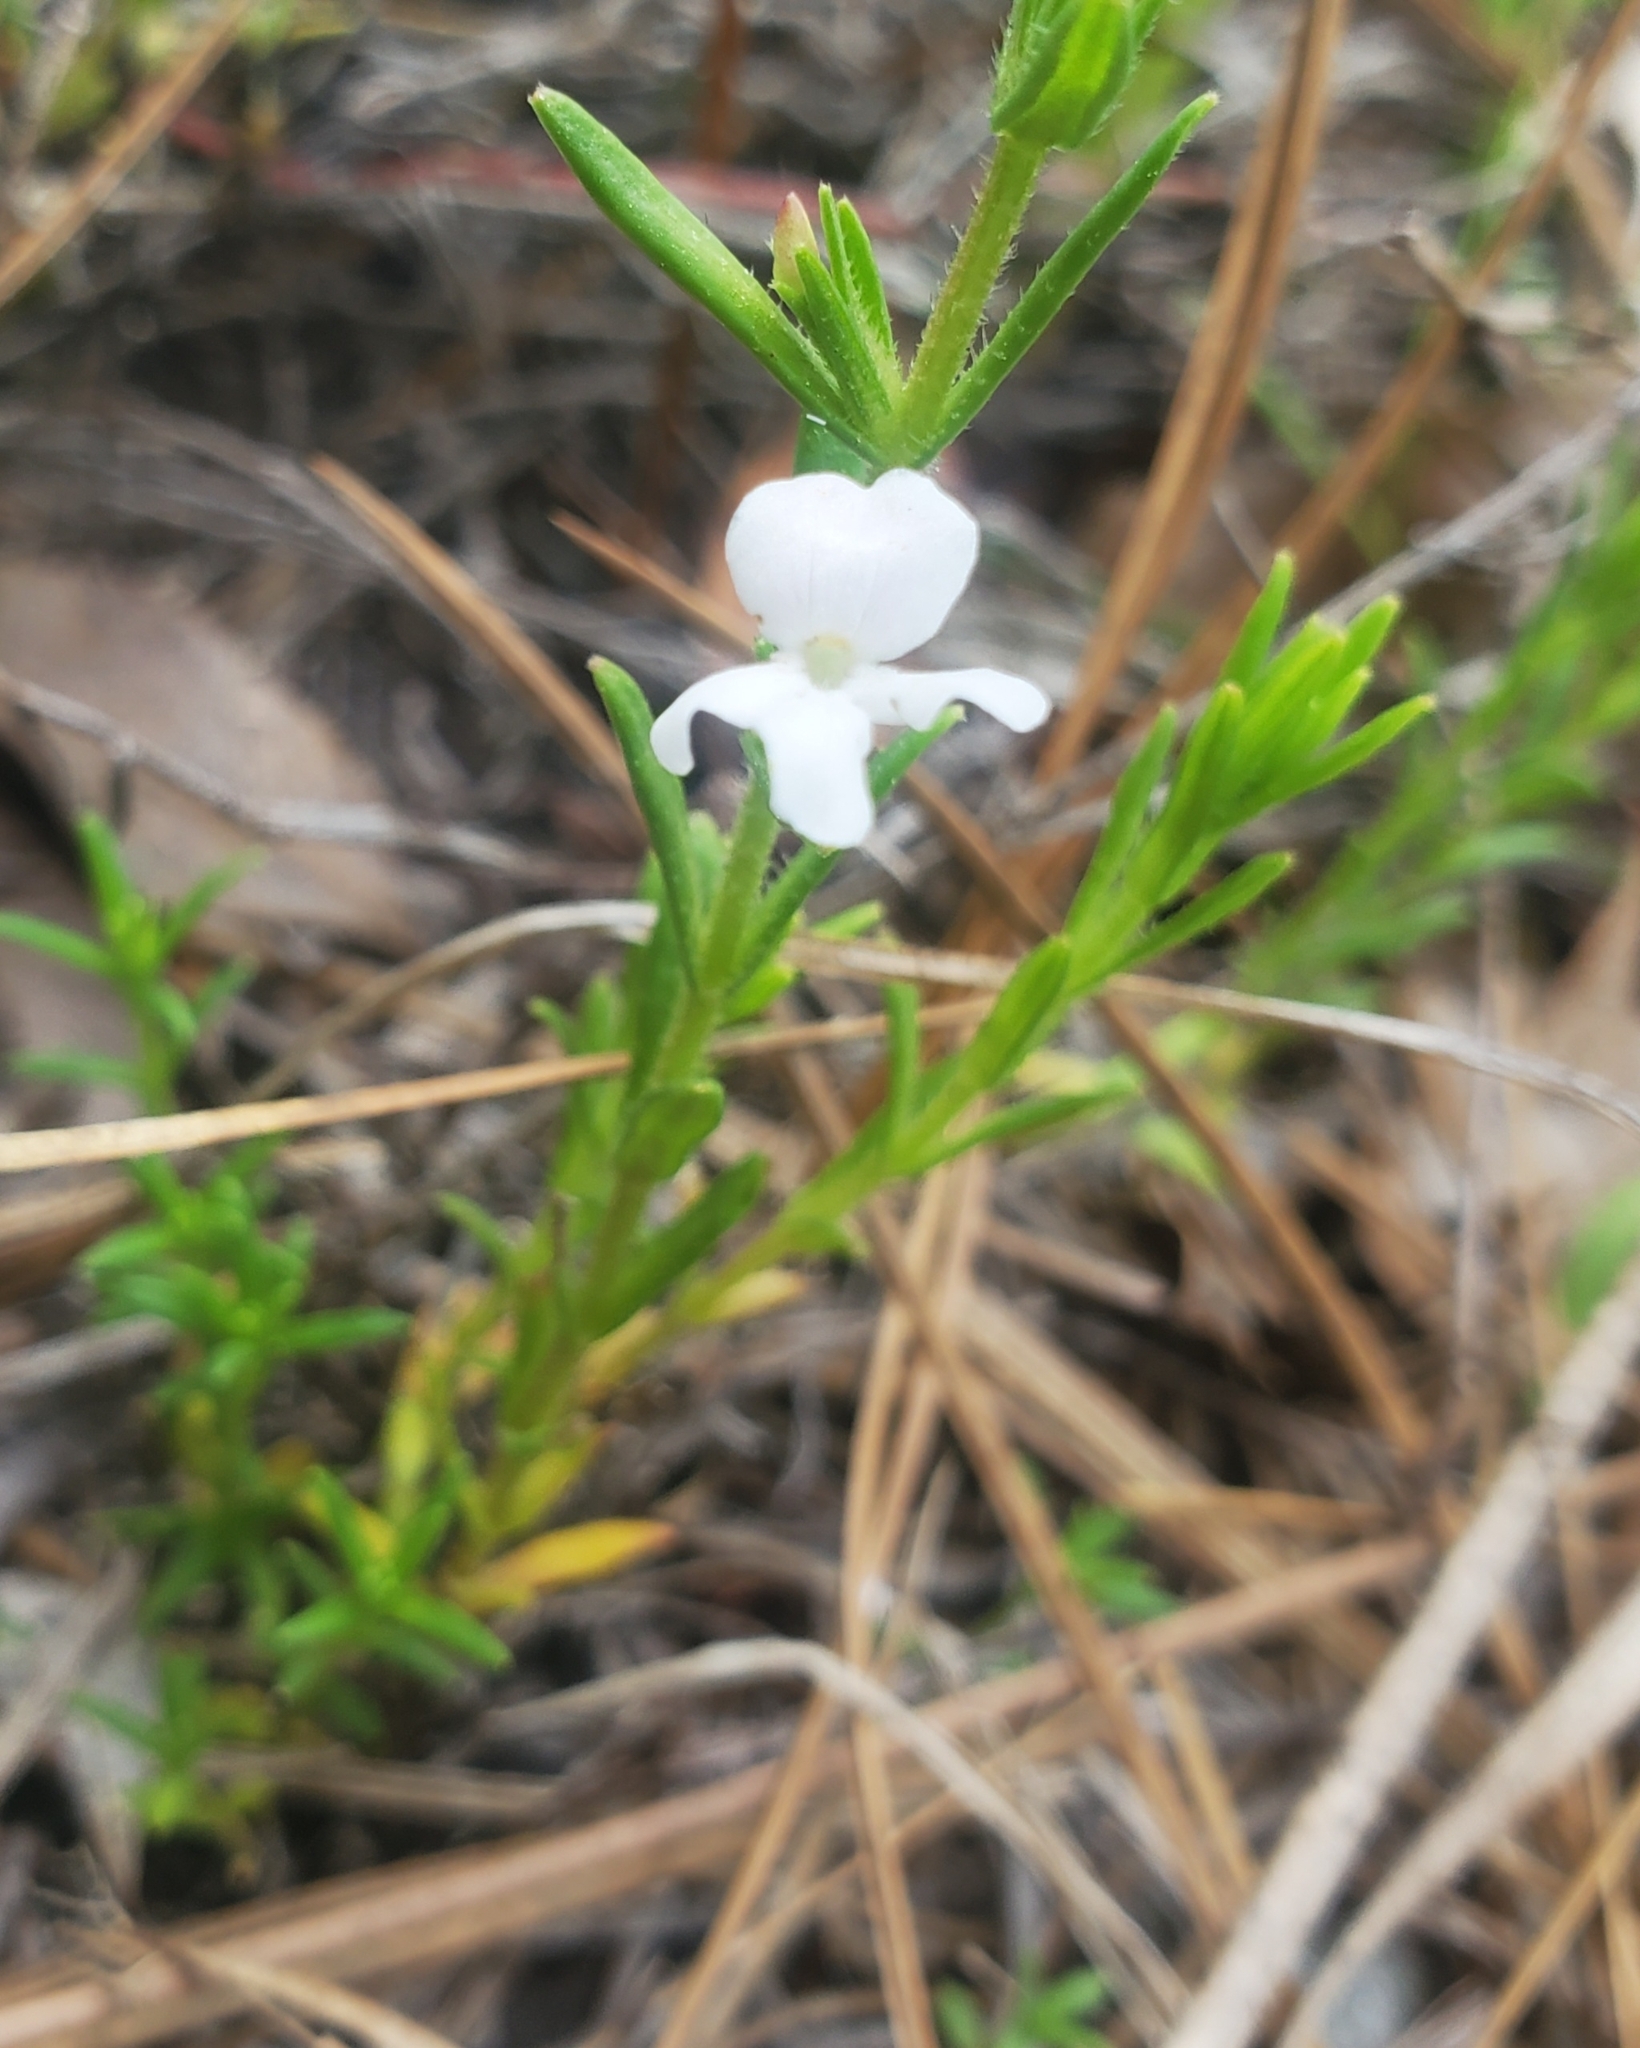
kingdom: Plantae
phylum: Tracheophyta
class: Magnoliopsida
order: Lamiales
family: Plantaginaceae
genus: Gratiola
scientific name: Gratiola hispida
